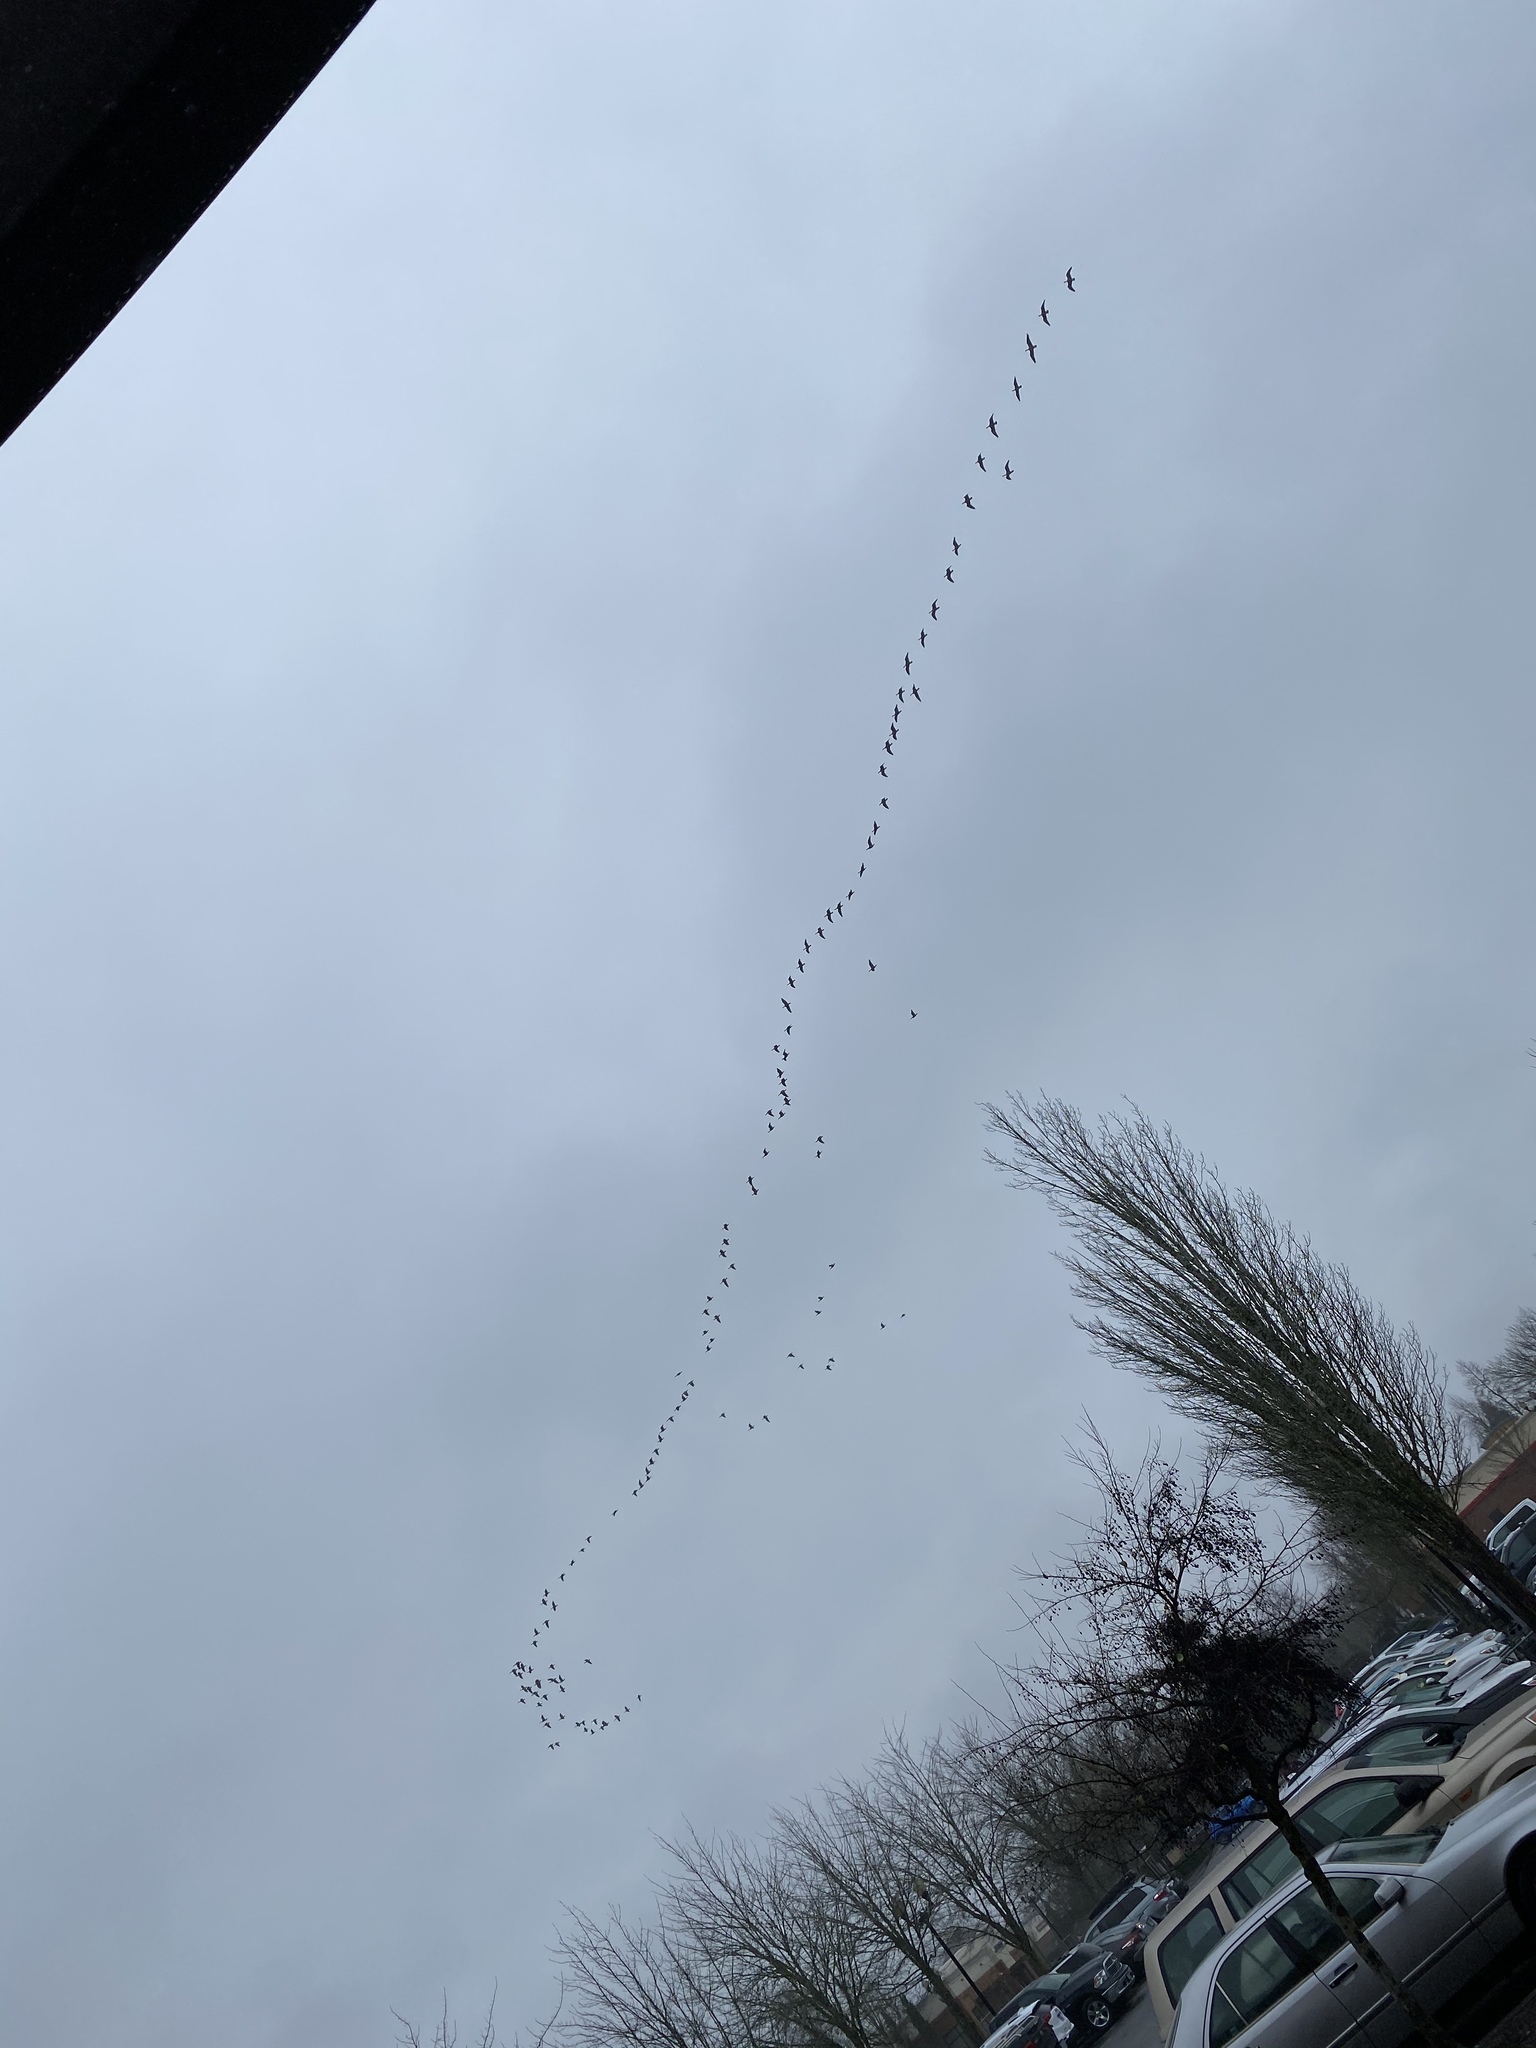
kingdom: Animalia
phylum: Chordata
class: Aves
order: Anseriformes
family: Anatidae
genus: Branta
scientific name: Branta hutchinsii
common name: Cackling goose
